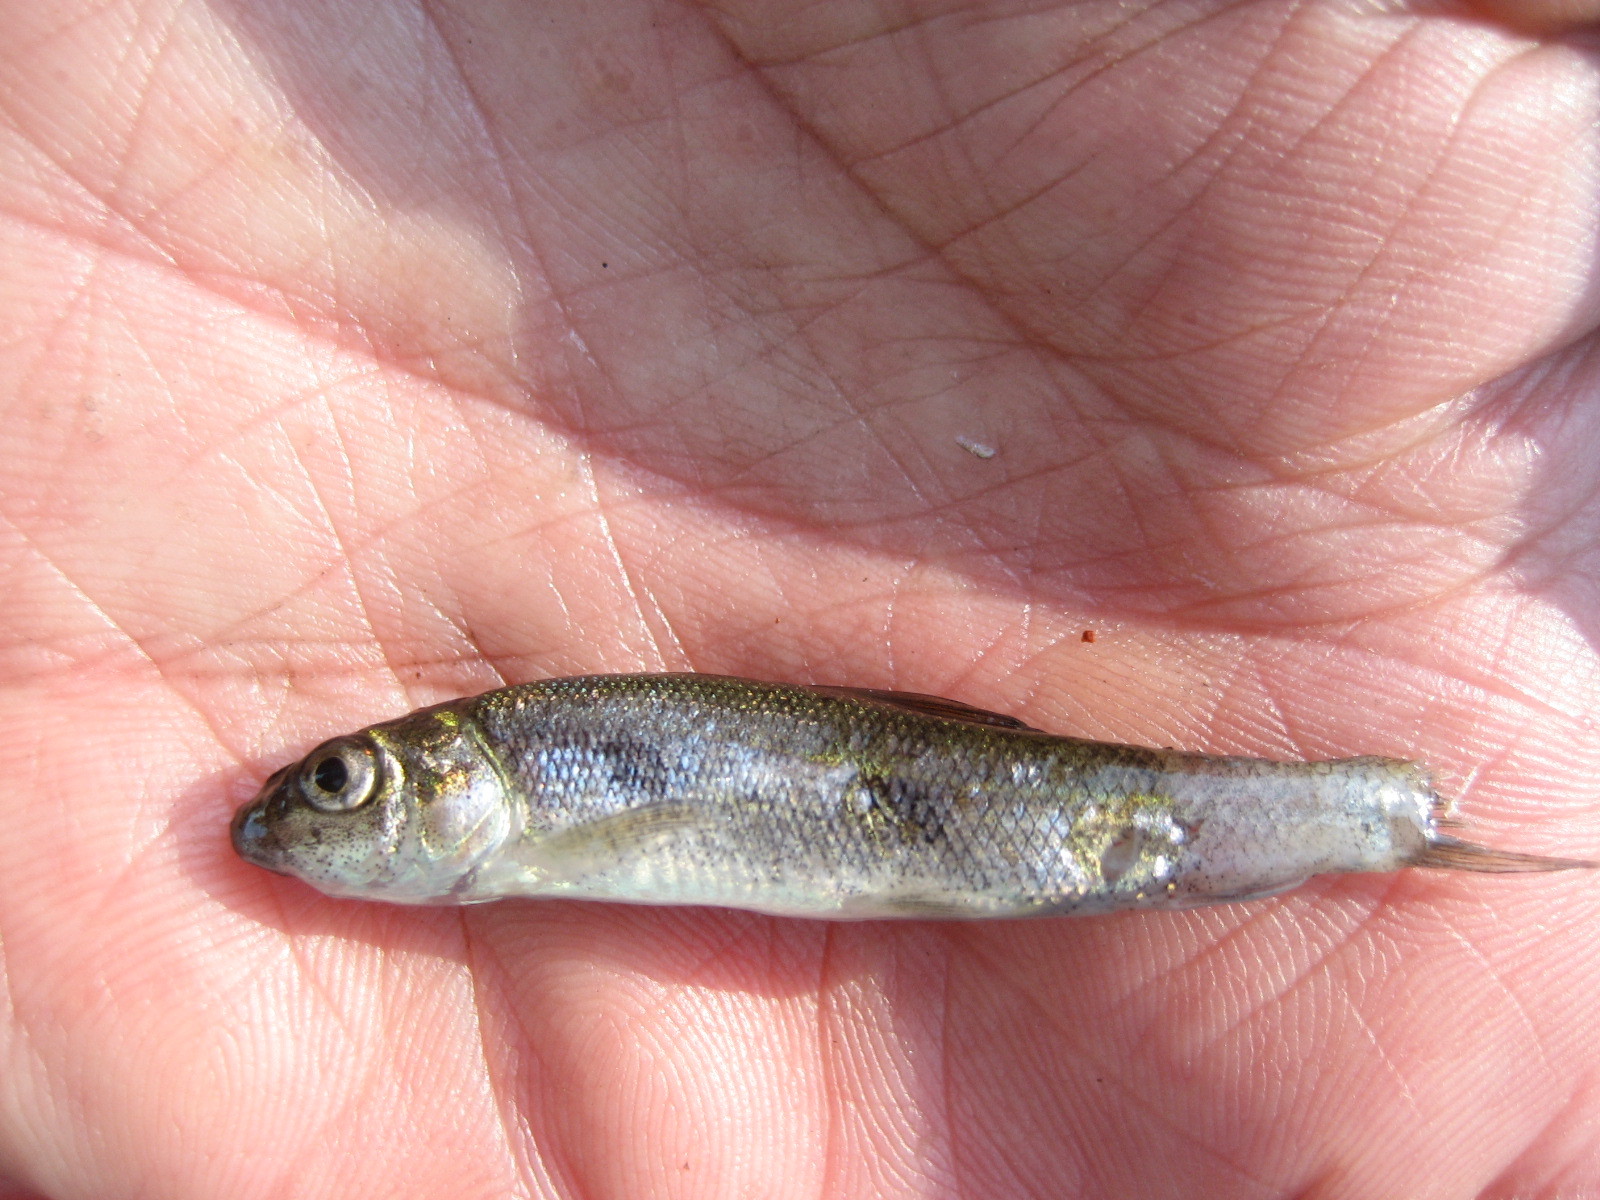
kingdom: Animalia
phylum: Chordata
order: Cypriniformes
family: Catostomidae
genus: Catostomus
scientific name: Catostomus commersonii
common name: White sucker
